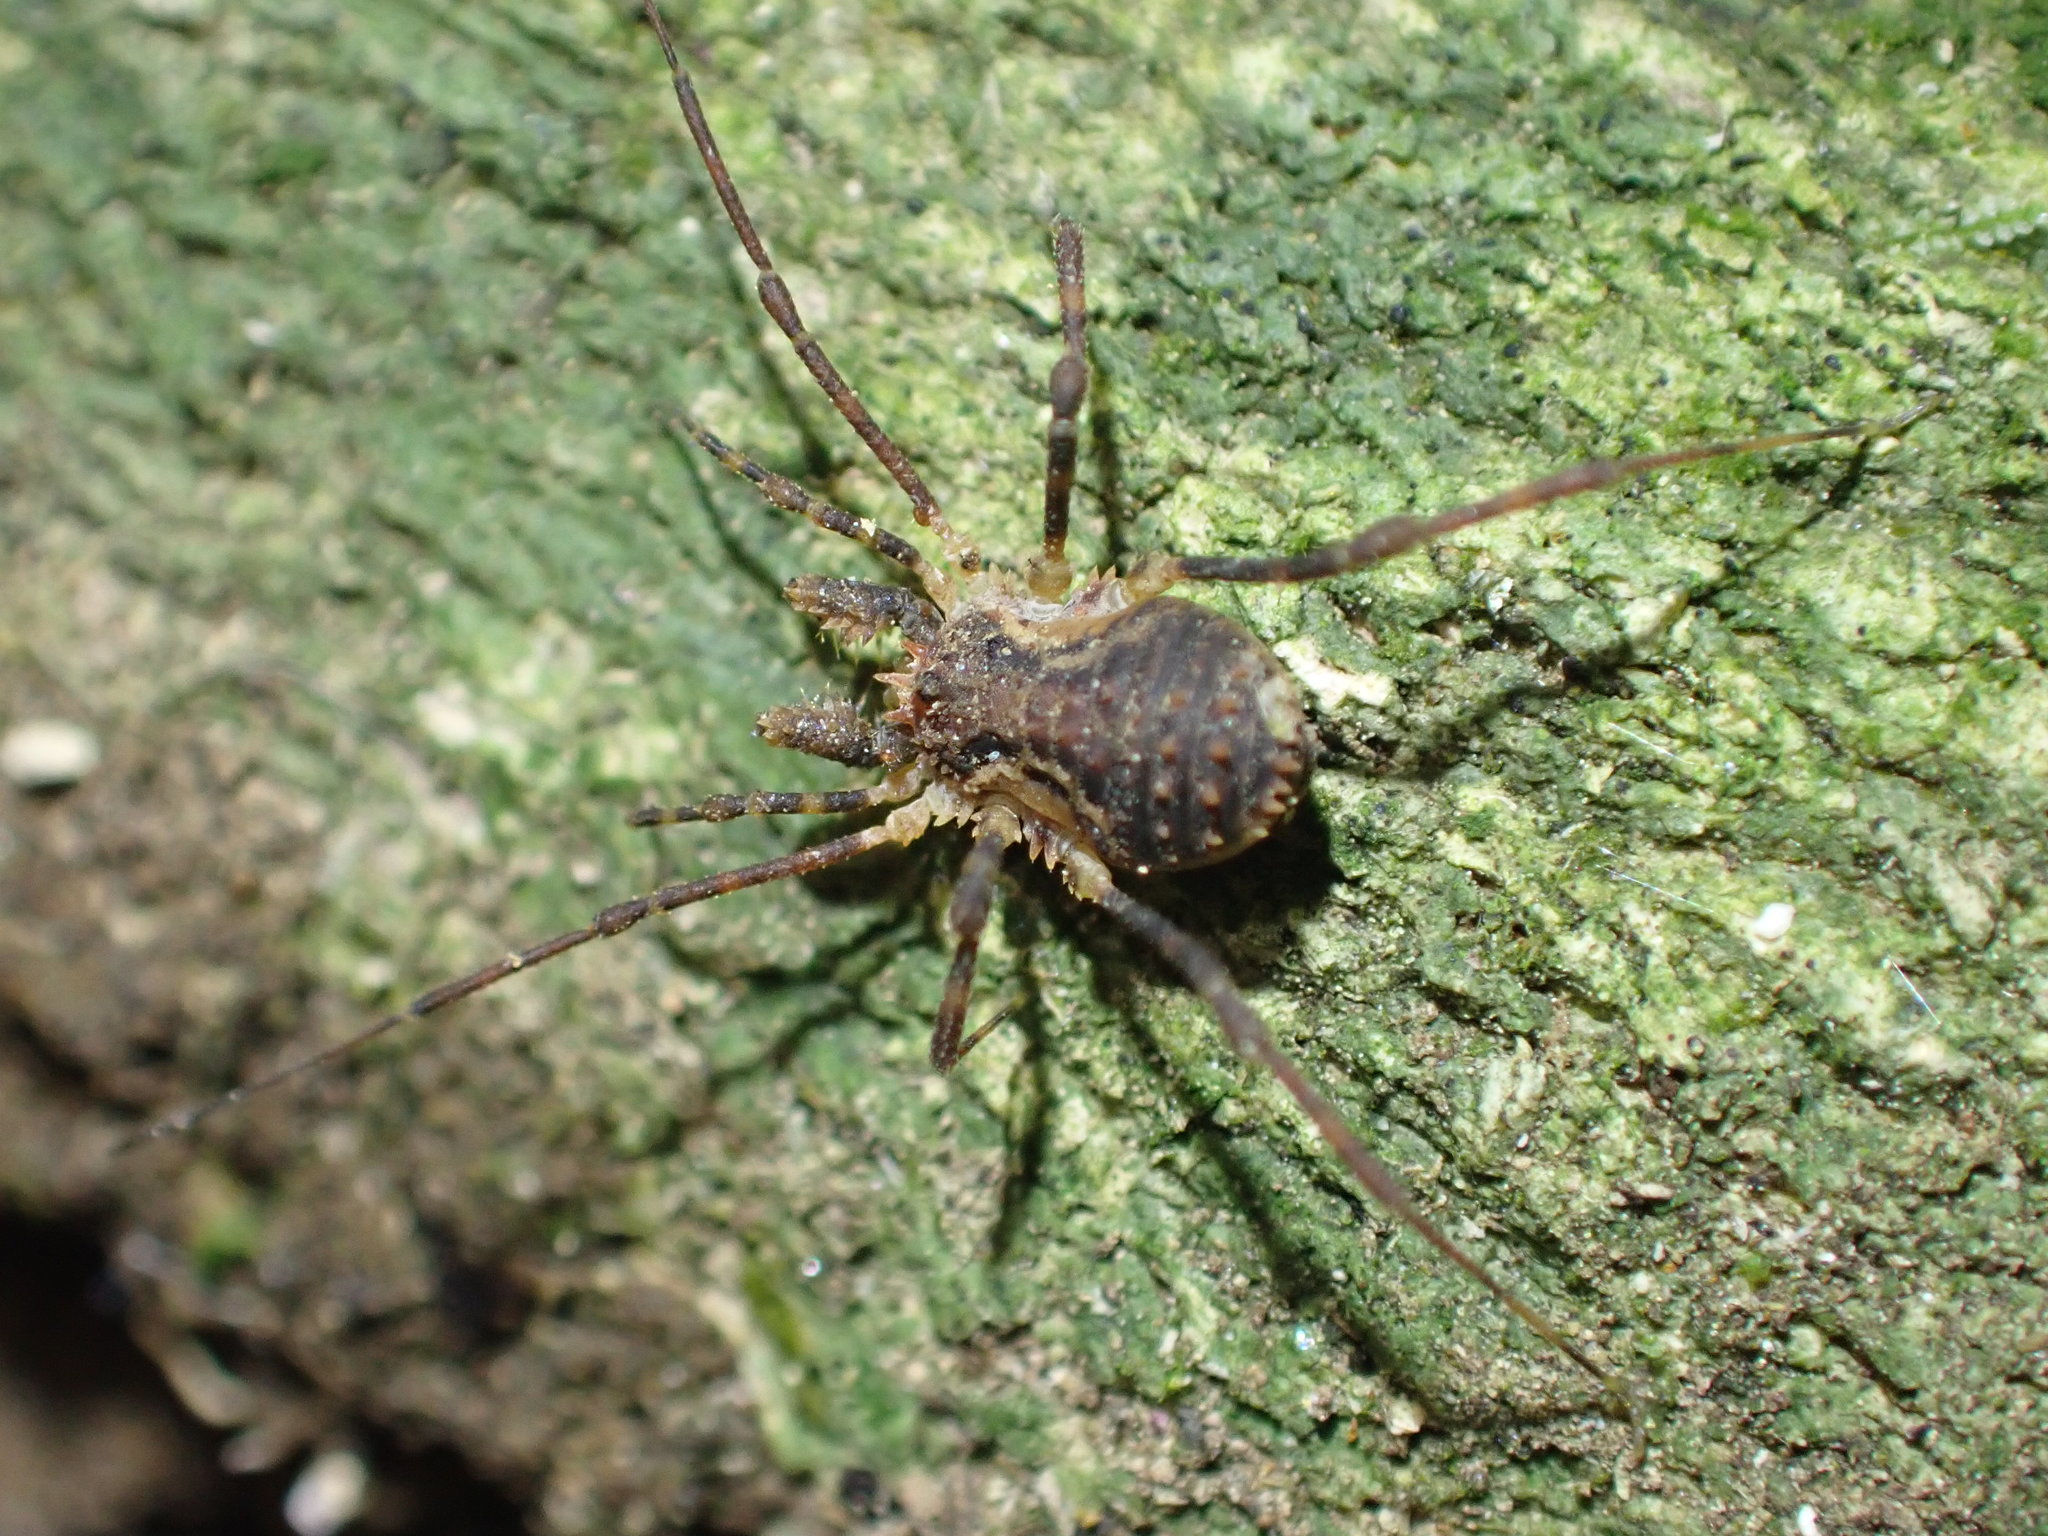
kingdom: Animalia
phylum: Arthropoda
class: Arachnida
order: Opiliones
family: Triaenonychidae
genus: Algidia
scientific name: Algidia nigriflava
